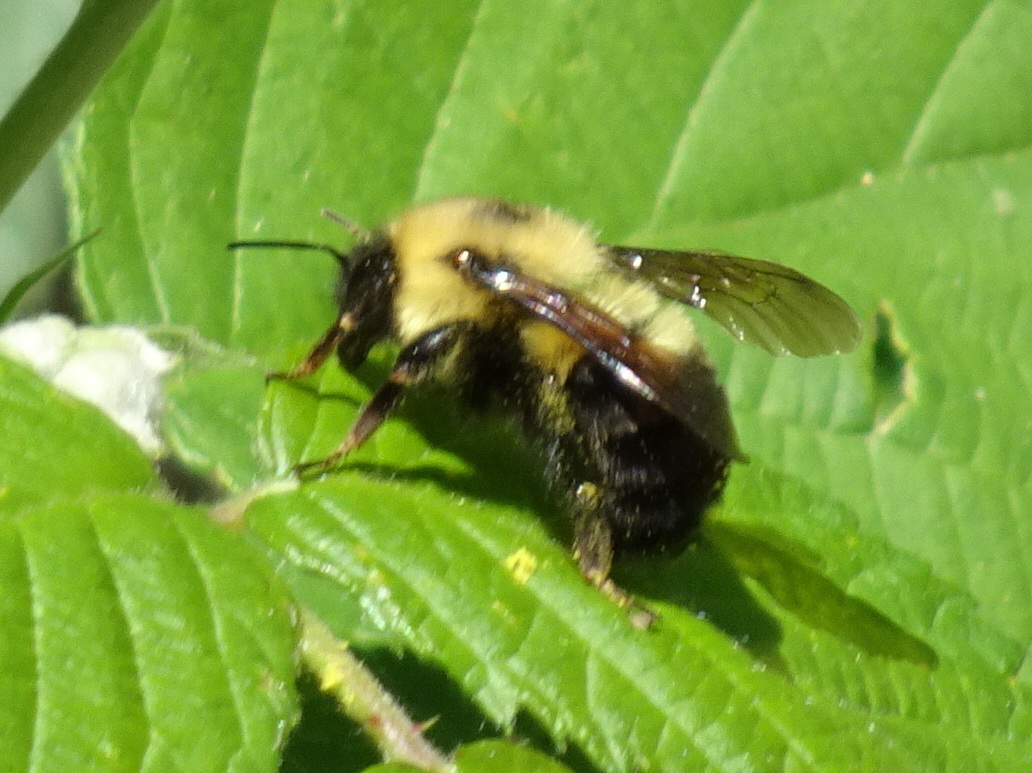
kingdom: Animalia
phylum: Arthropoda
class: Insecta
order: Hymenoptera
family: Apidae
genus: Bombus
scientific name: Bombus bimaculatus
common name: Two-spotted bumble bee
